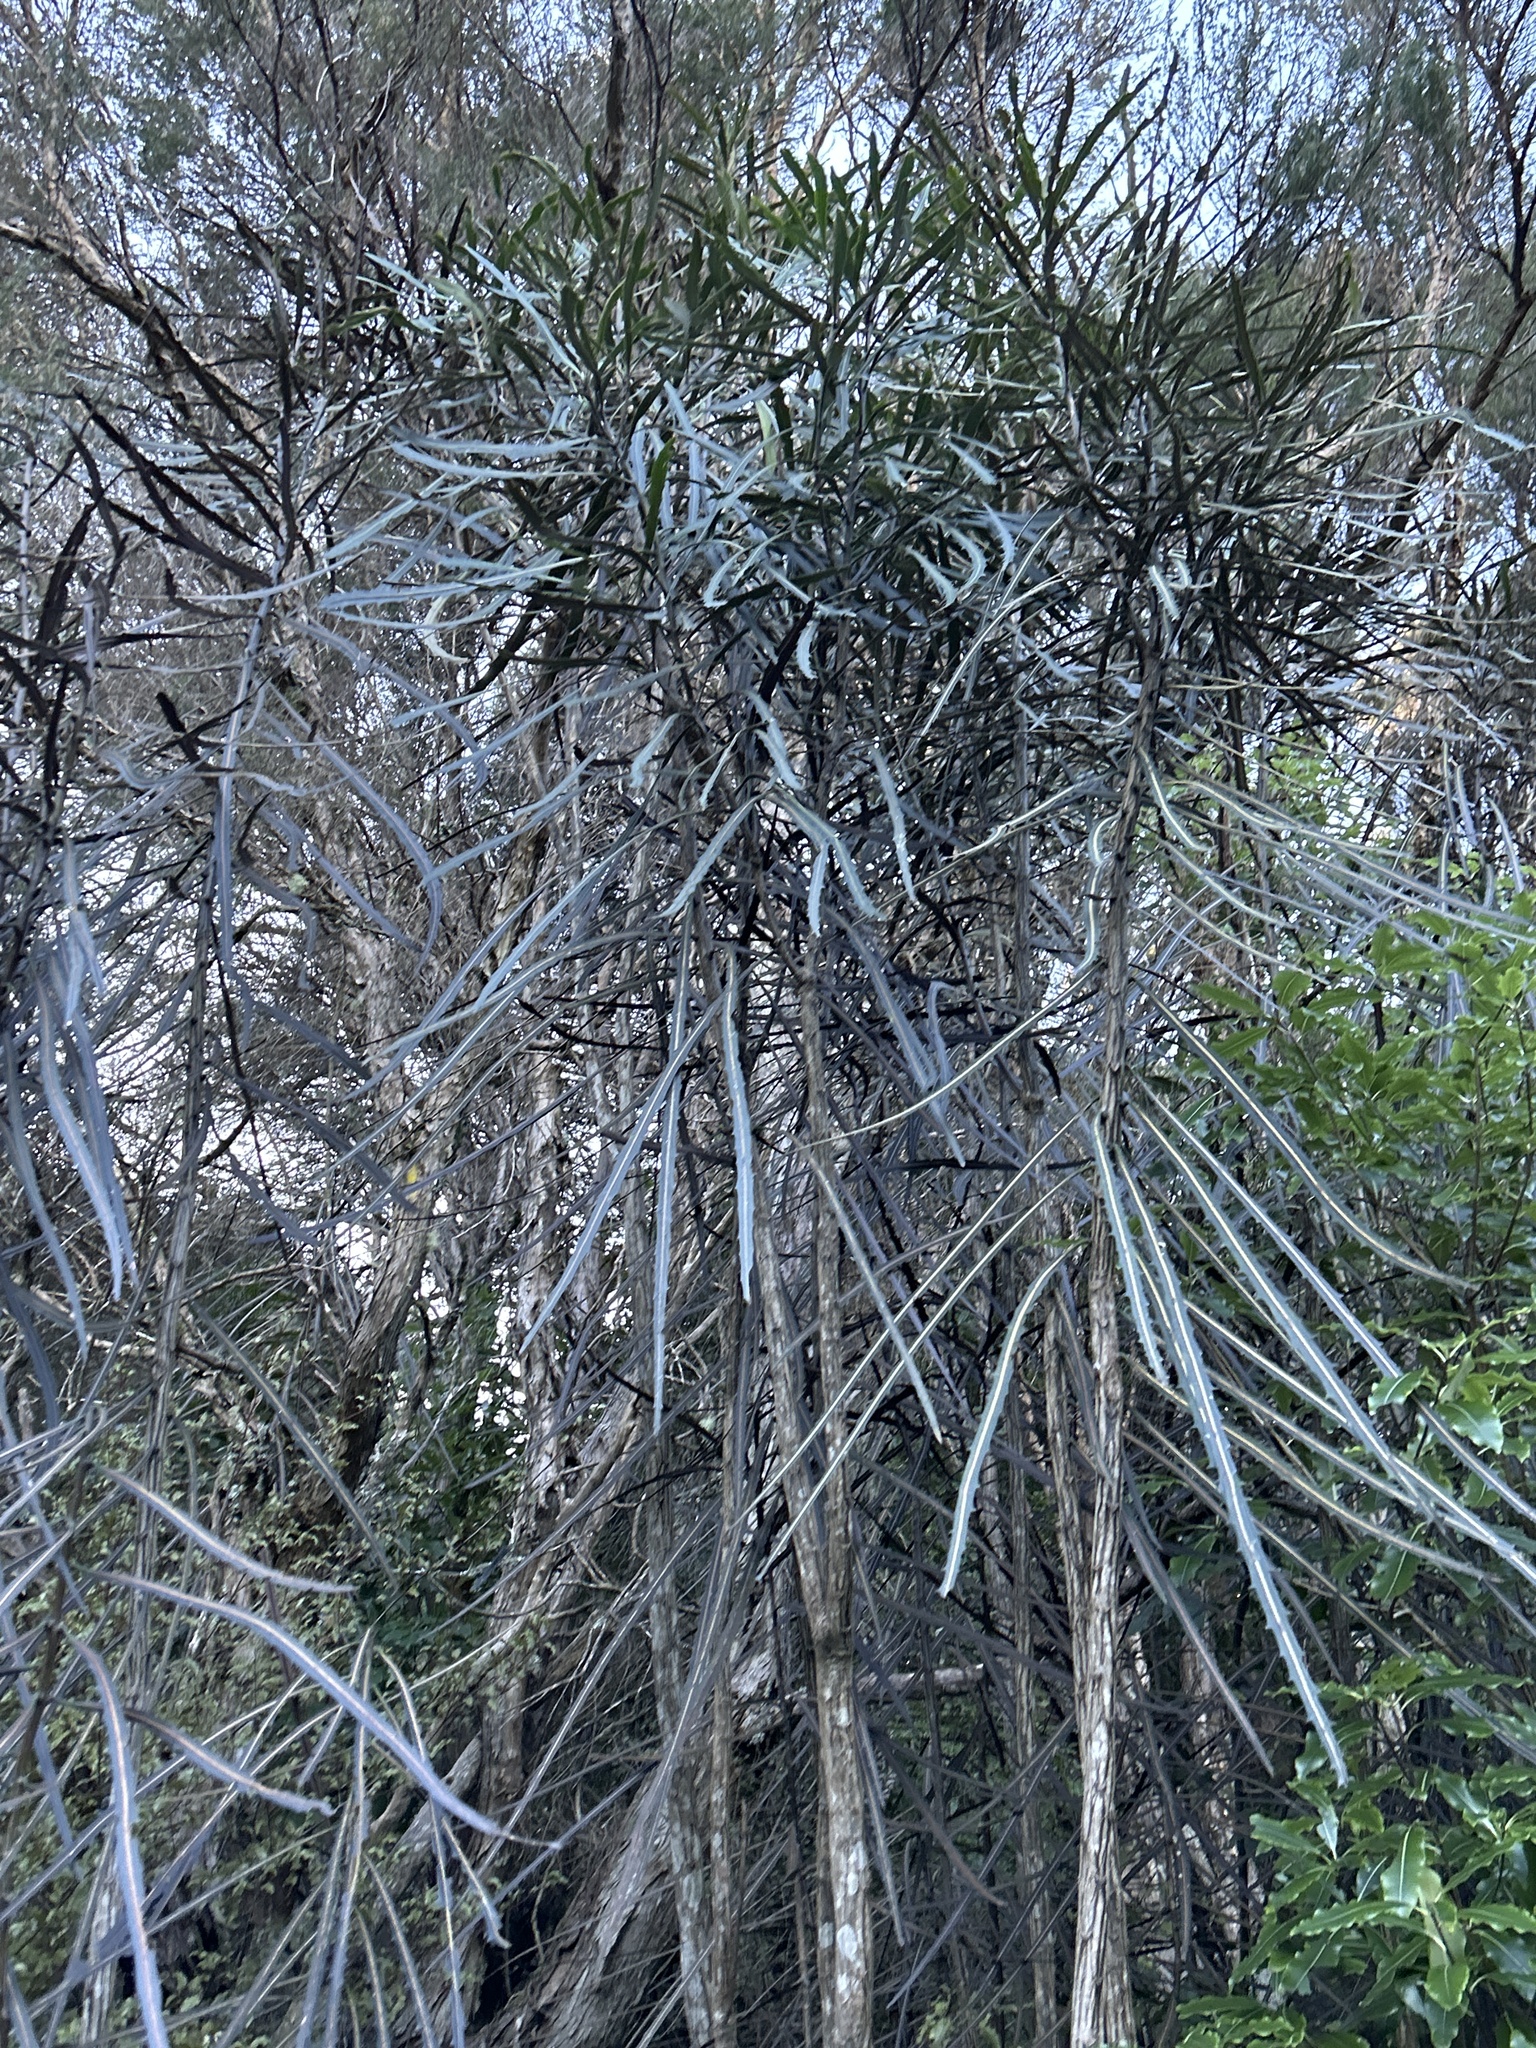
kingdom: Plantae
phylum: Tracheophyta
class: Magnoliopsida
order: Apiales
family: Araliaceae
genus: Pseudopanax
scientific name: Pseudopanax crassifolius
